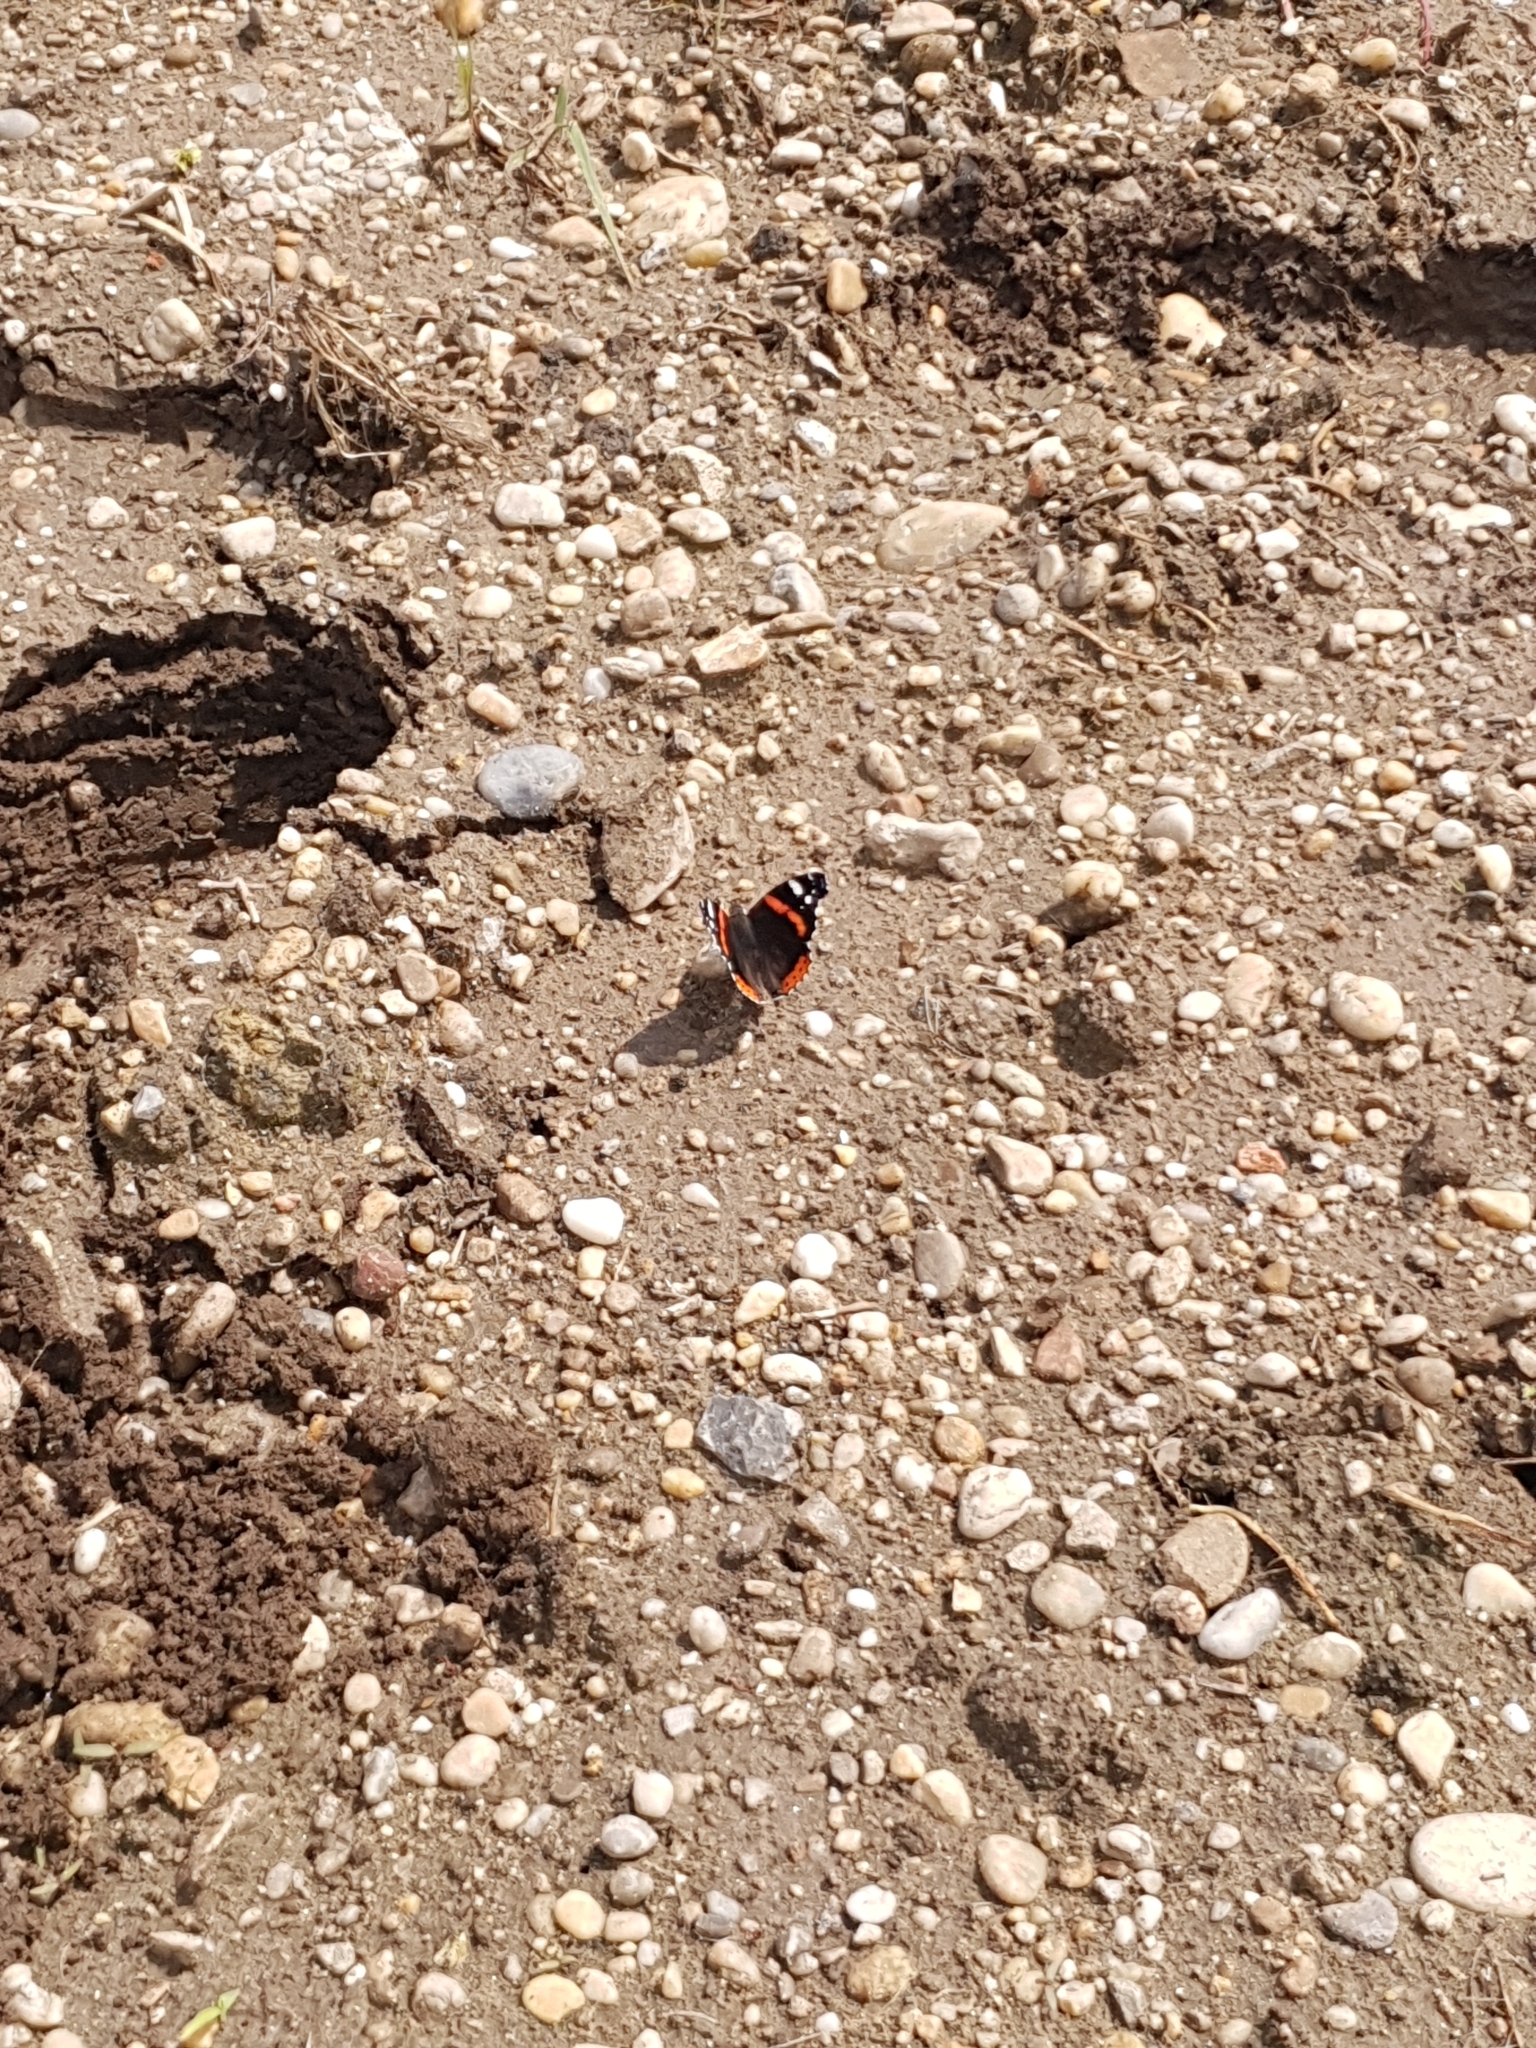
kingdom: Animalia
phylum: Arthropoda
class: Insecta
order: Lepidoptera
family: Nymphalidae
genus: Vanessa
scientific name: Vanessa atalanta
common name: Red admiral
